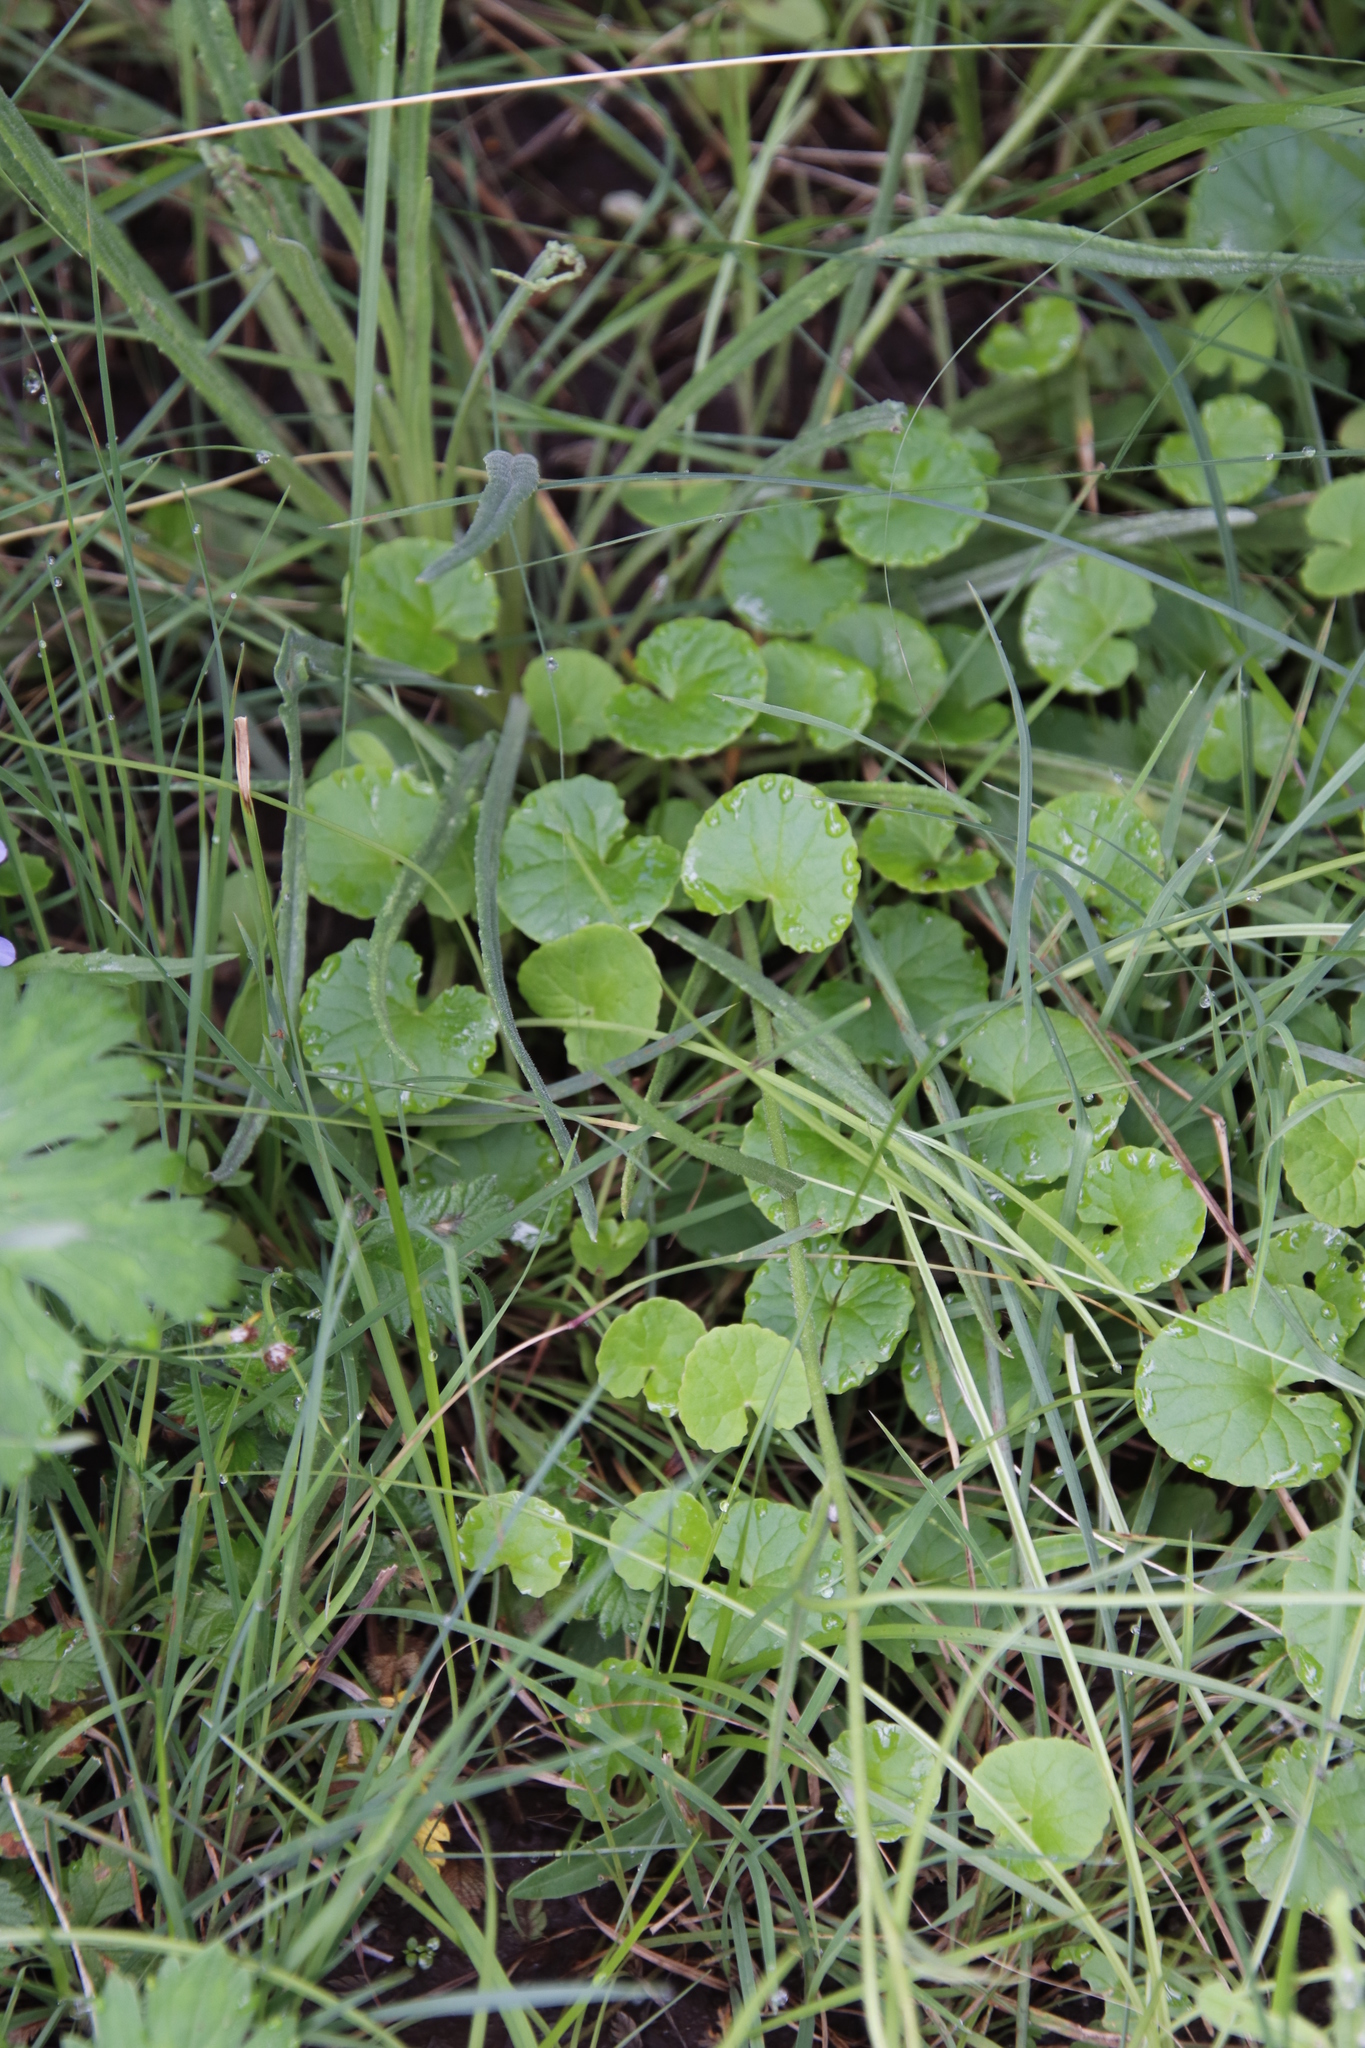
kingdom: Plantae
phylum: Tracheophyta
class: Magnoliopsida
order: Apiales
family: Apiaceae
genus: Centella
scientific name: Centella asiatica
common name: Spadeleaf
